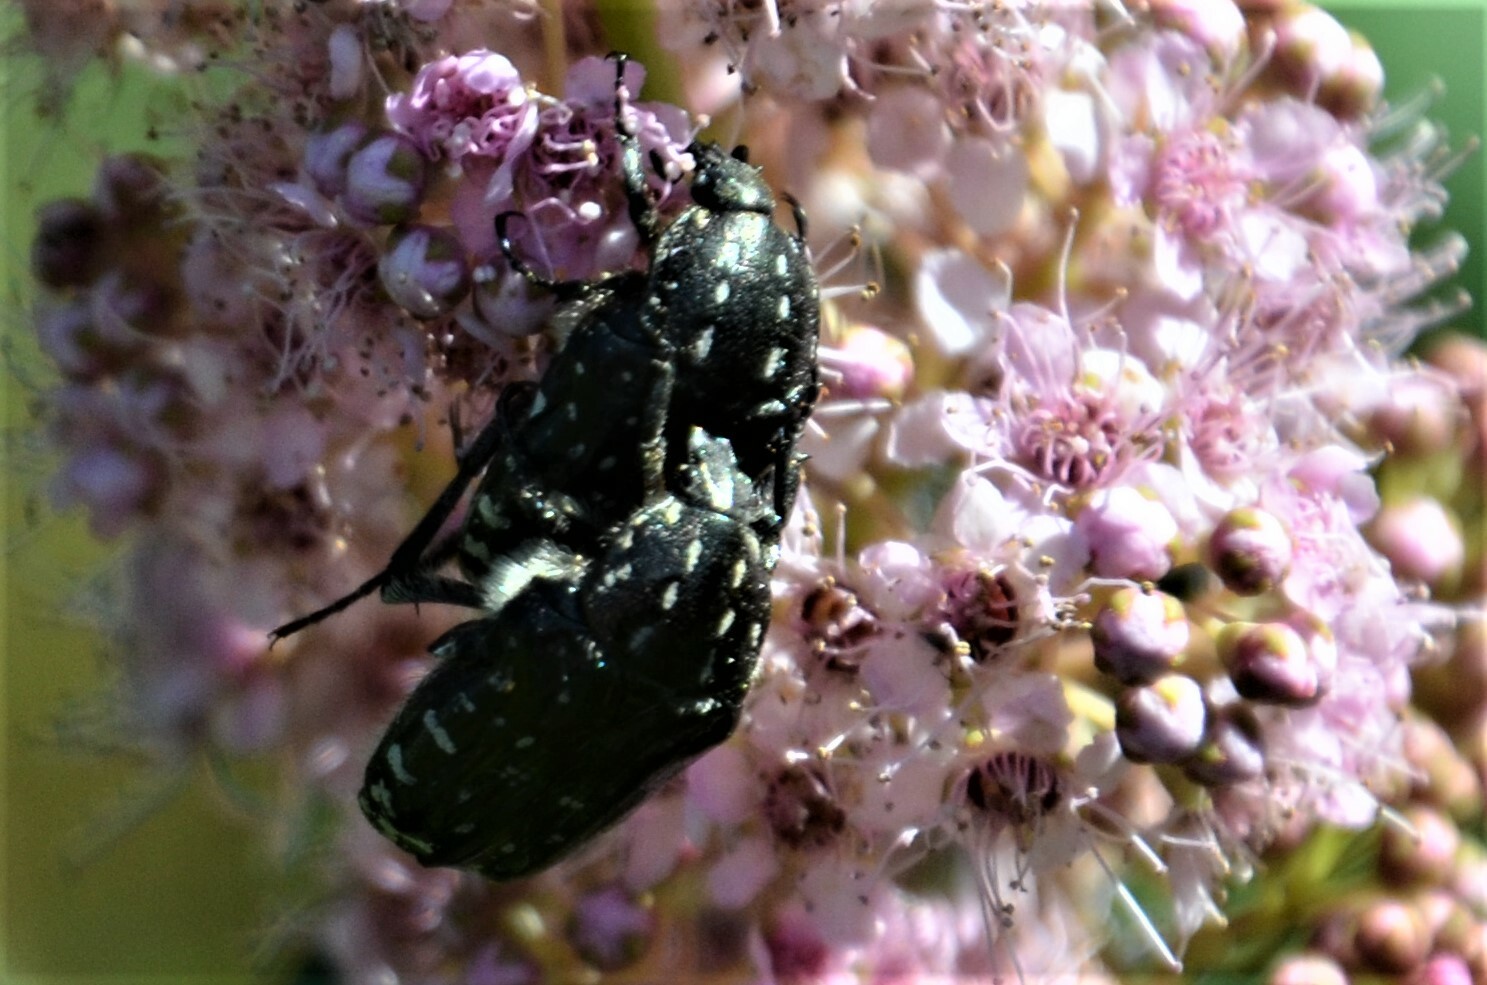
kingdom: Animalia
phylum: Arthropoda
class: Insecta
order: Coleoptera
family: Scarabaeidae
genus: Oxythyrea
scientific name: Oxythyrea funesta
